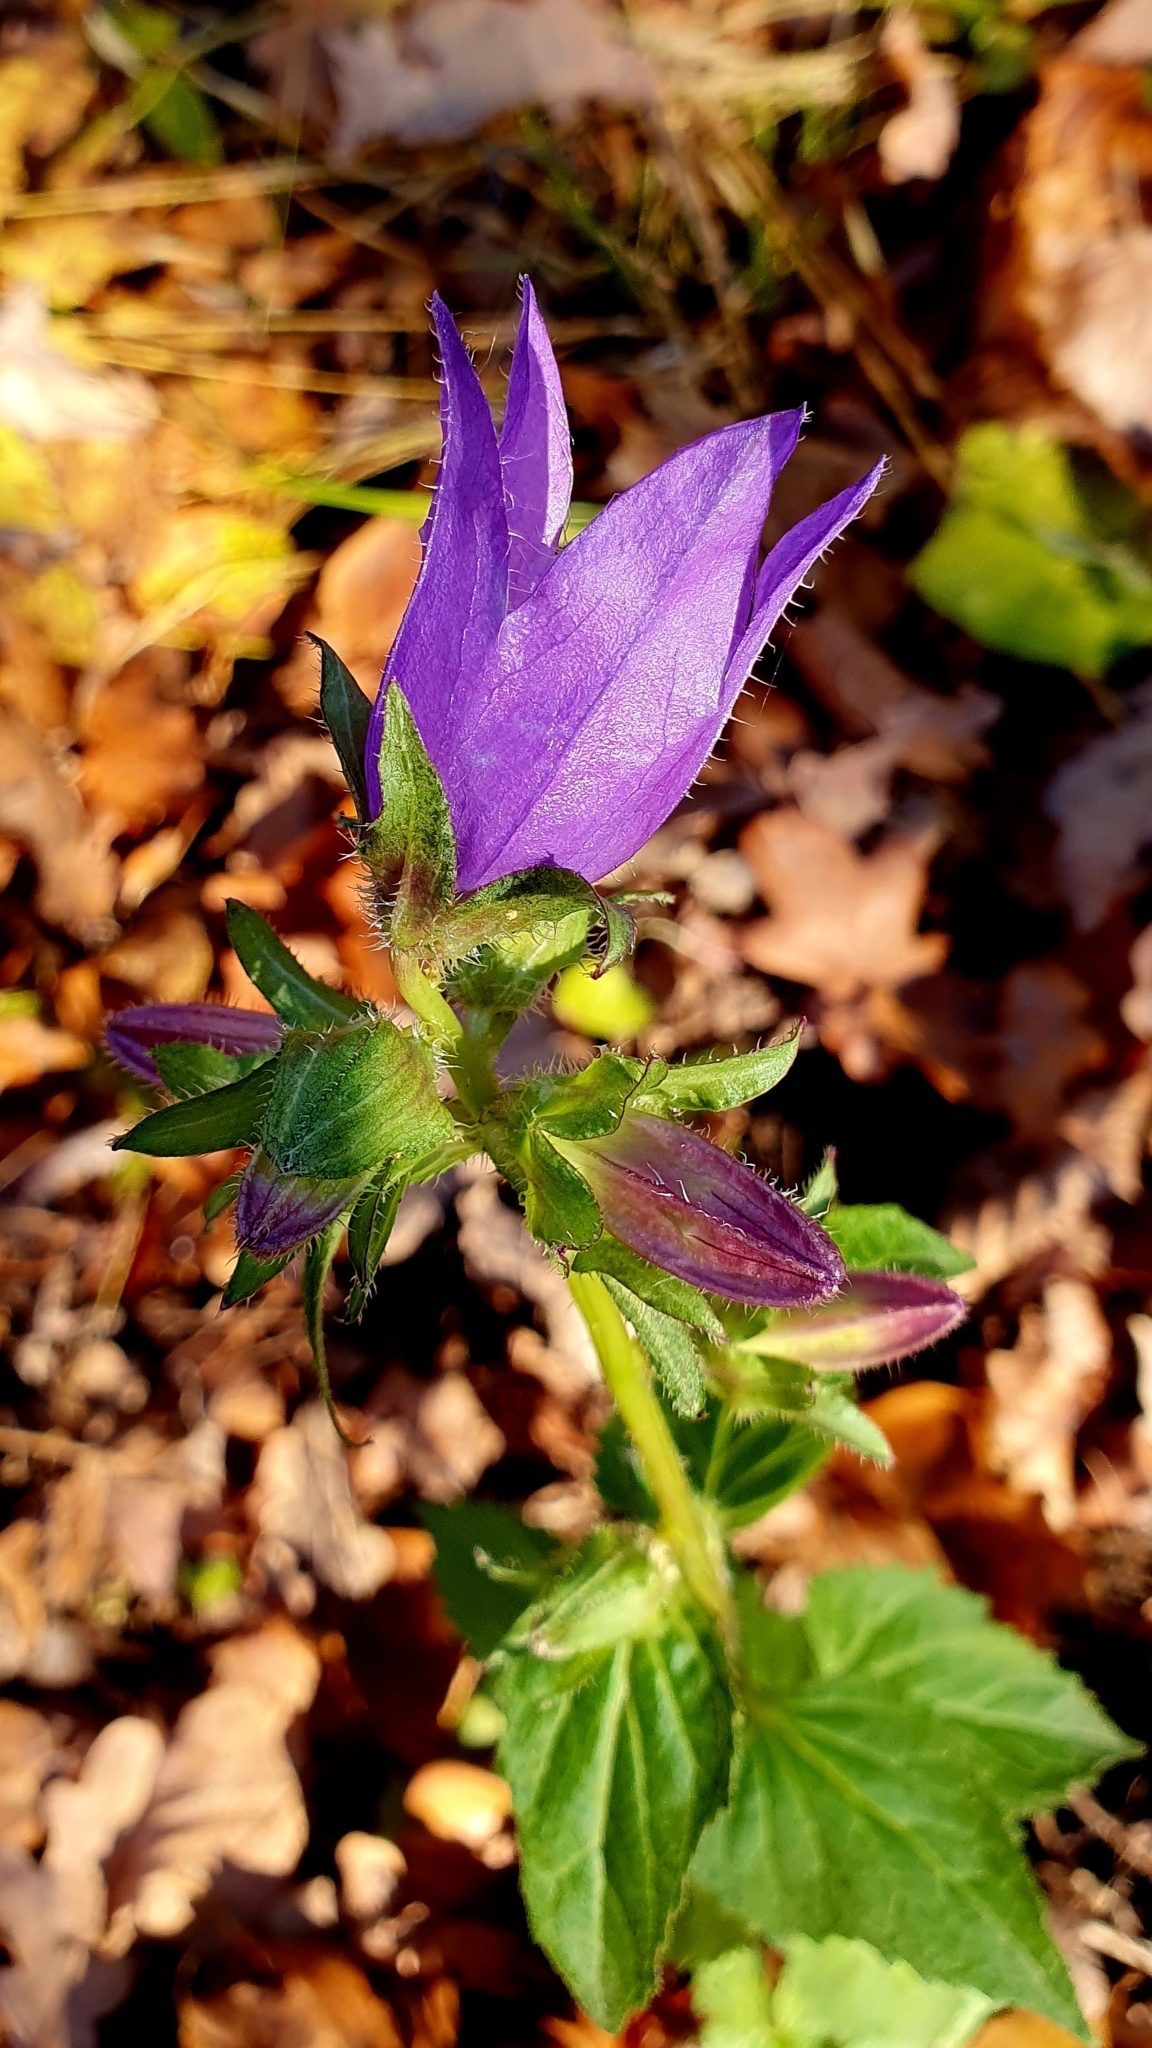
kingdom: Plantae
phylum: Tracheophyta
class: Magnoliopsida
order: Asterales
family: Campanulaceae
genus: Campanula
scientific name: Campanula trachelium
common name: Nettle-leaved bellflower
